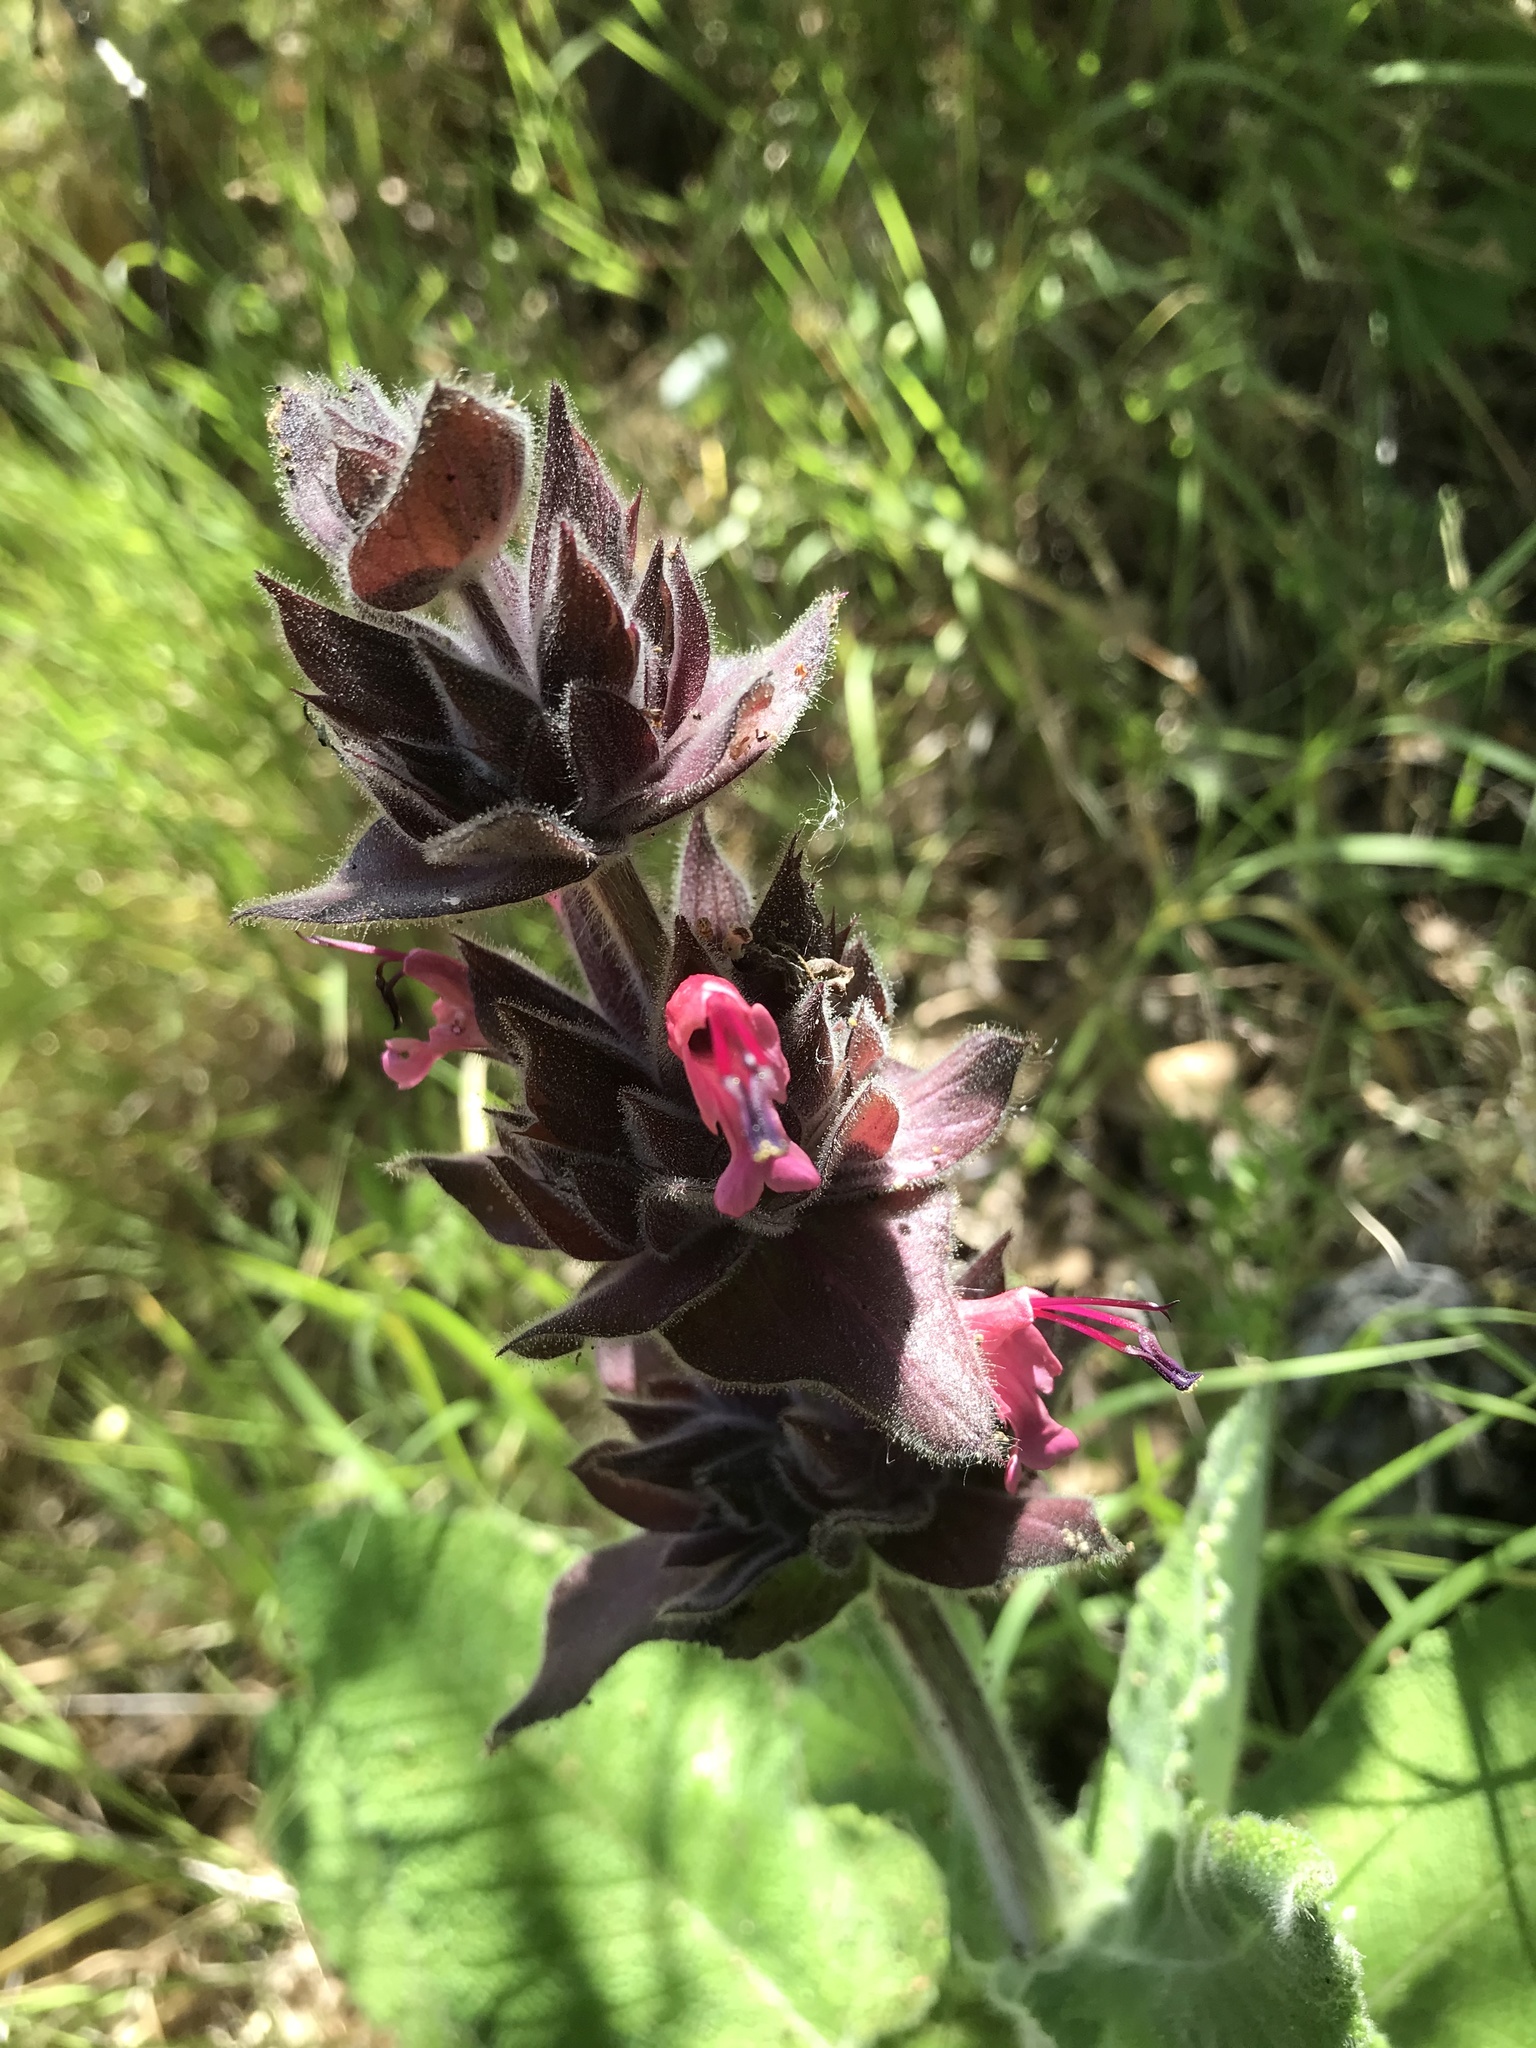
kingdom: Plantae
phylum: Tracheophyta
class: Magnoliopsida
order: Lamiales
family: Lamiaceae
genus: Salvia
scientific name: Salvia spathacea
